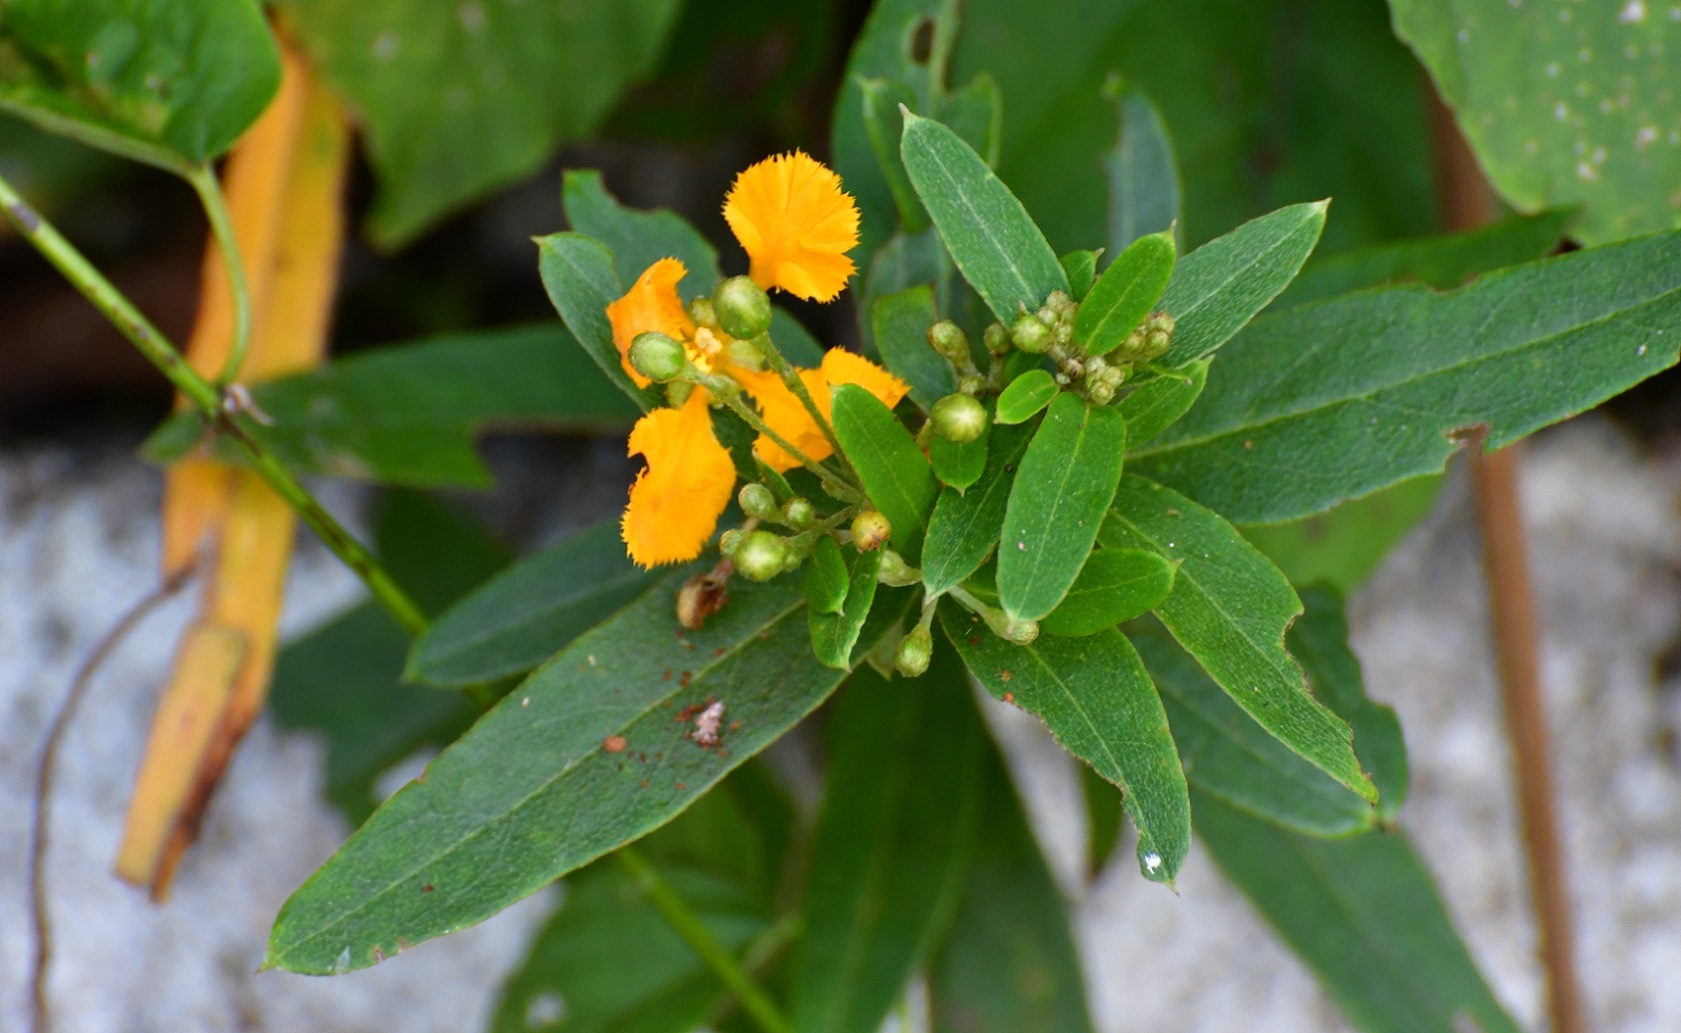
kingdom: Plantae
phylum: Tracheophyta
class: Magnoliopsida
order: Malpighiales
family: Malpighiaceae
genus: Gaudichaudia
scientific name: Gaudichaudia cynanchoides
